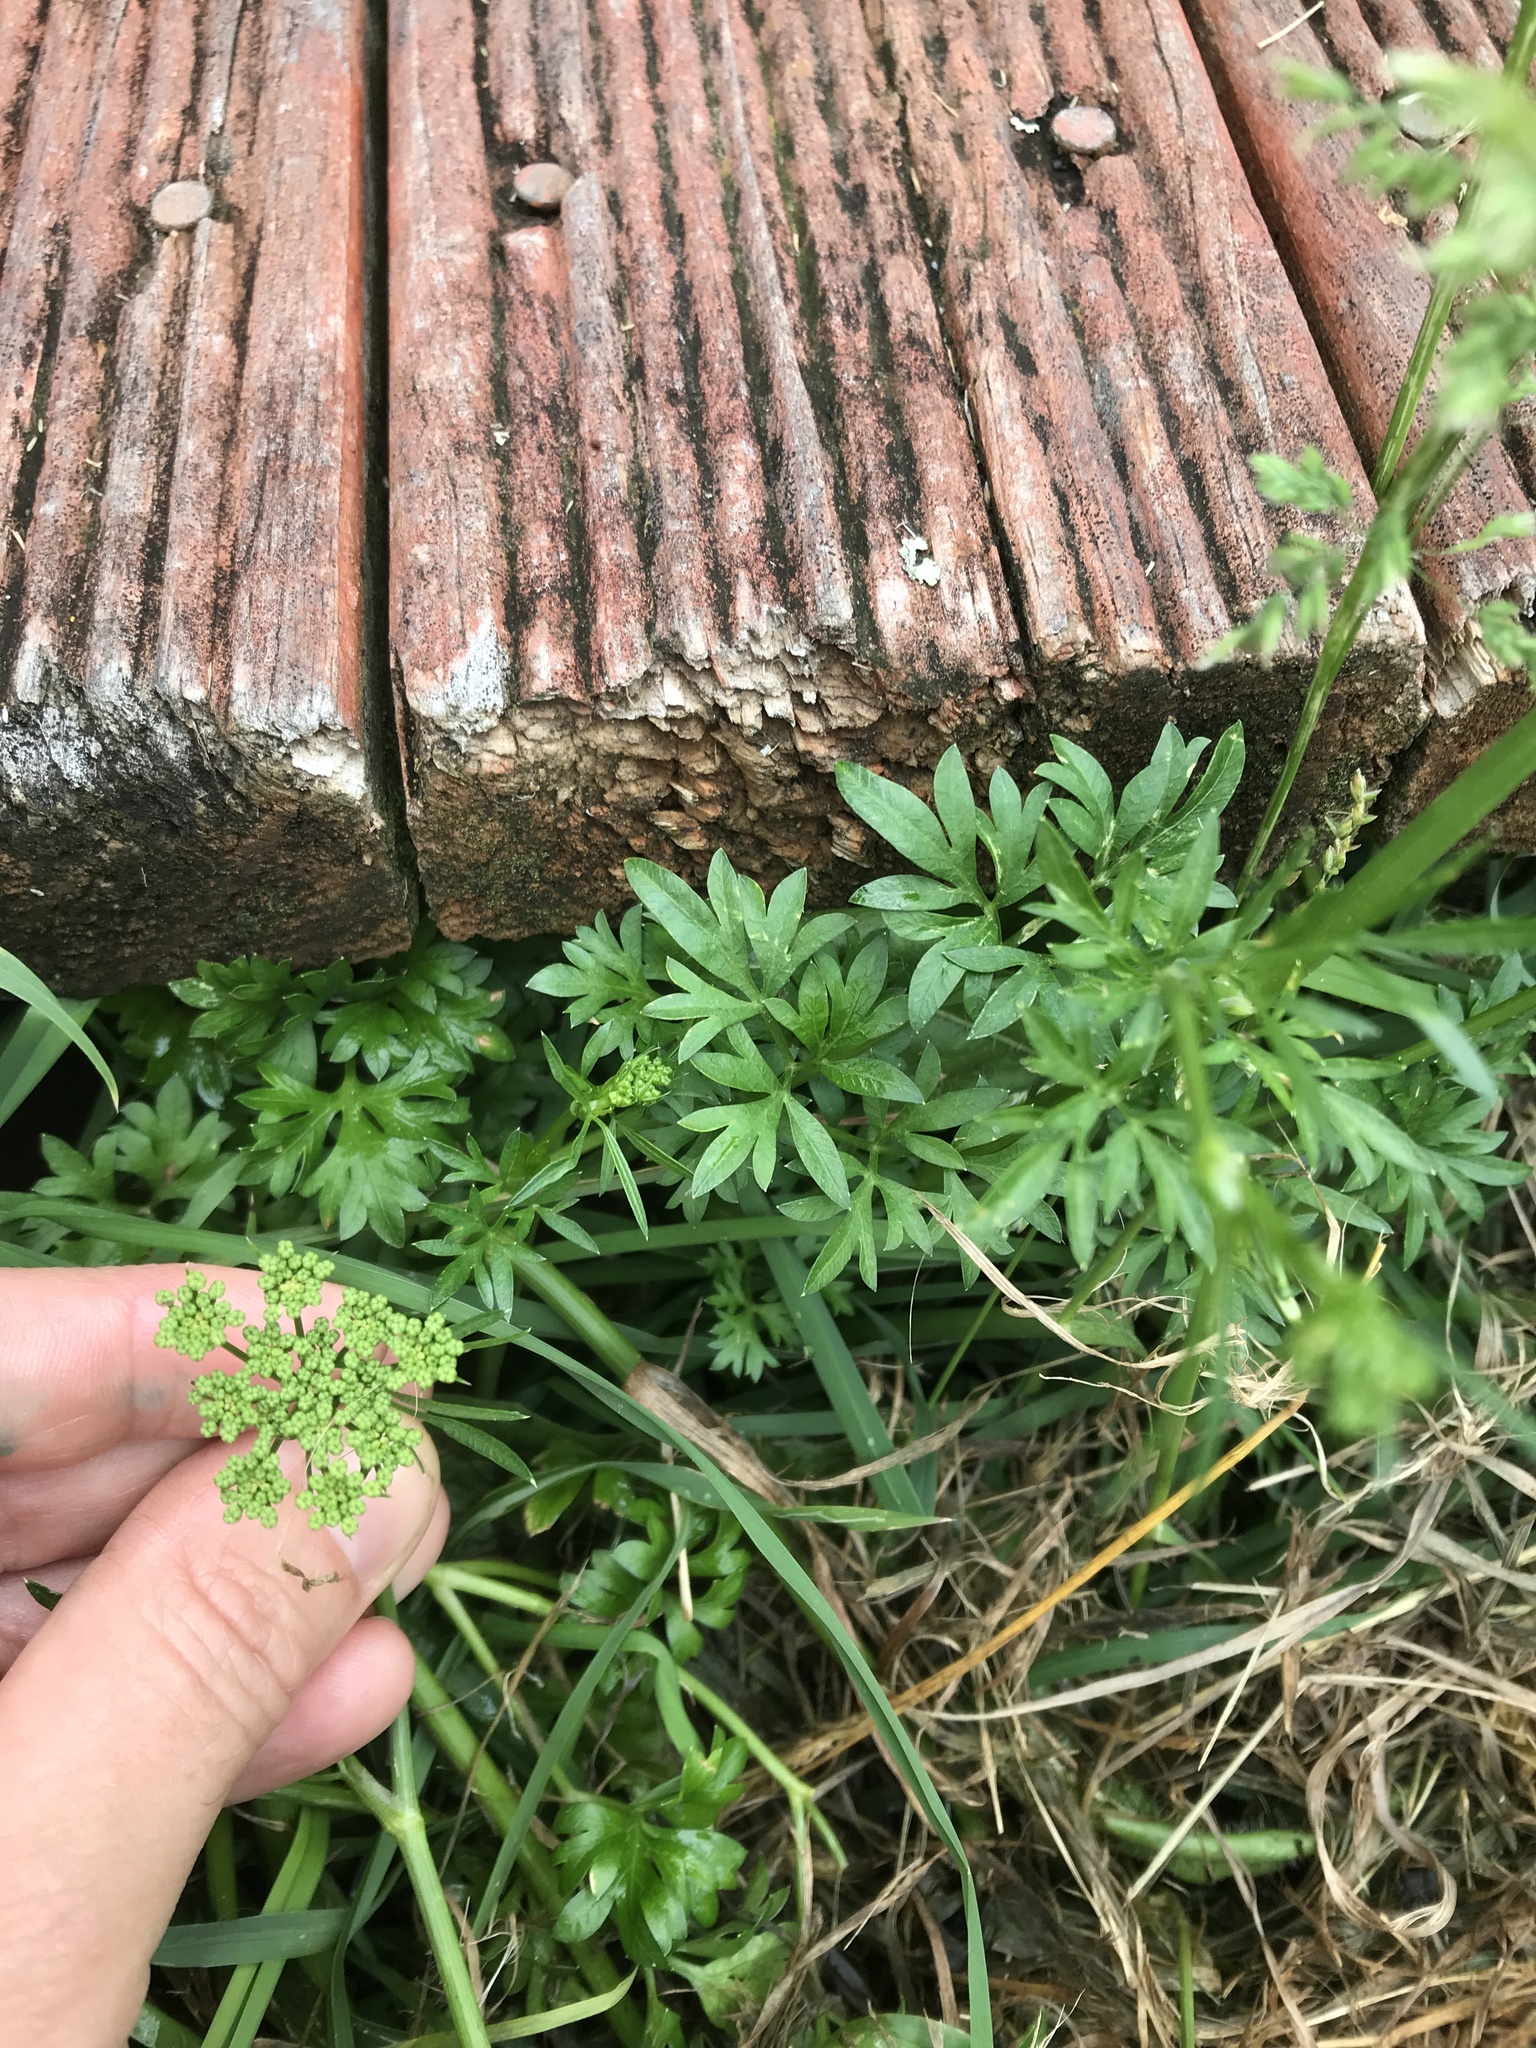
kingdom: Plantae
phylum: Tracheophyta
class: Magnoliopsida
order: Apiales
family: Apiaceae
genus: Petroselinum
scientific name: Petroselinum crispum
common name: Parsley
